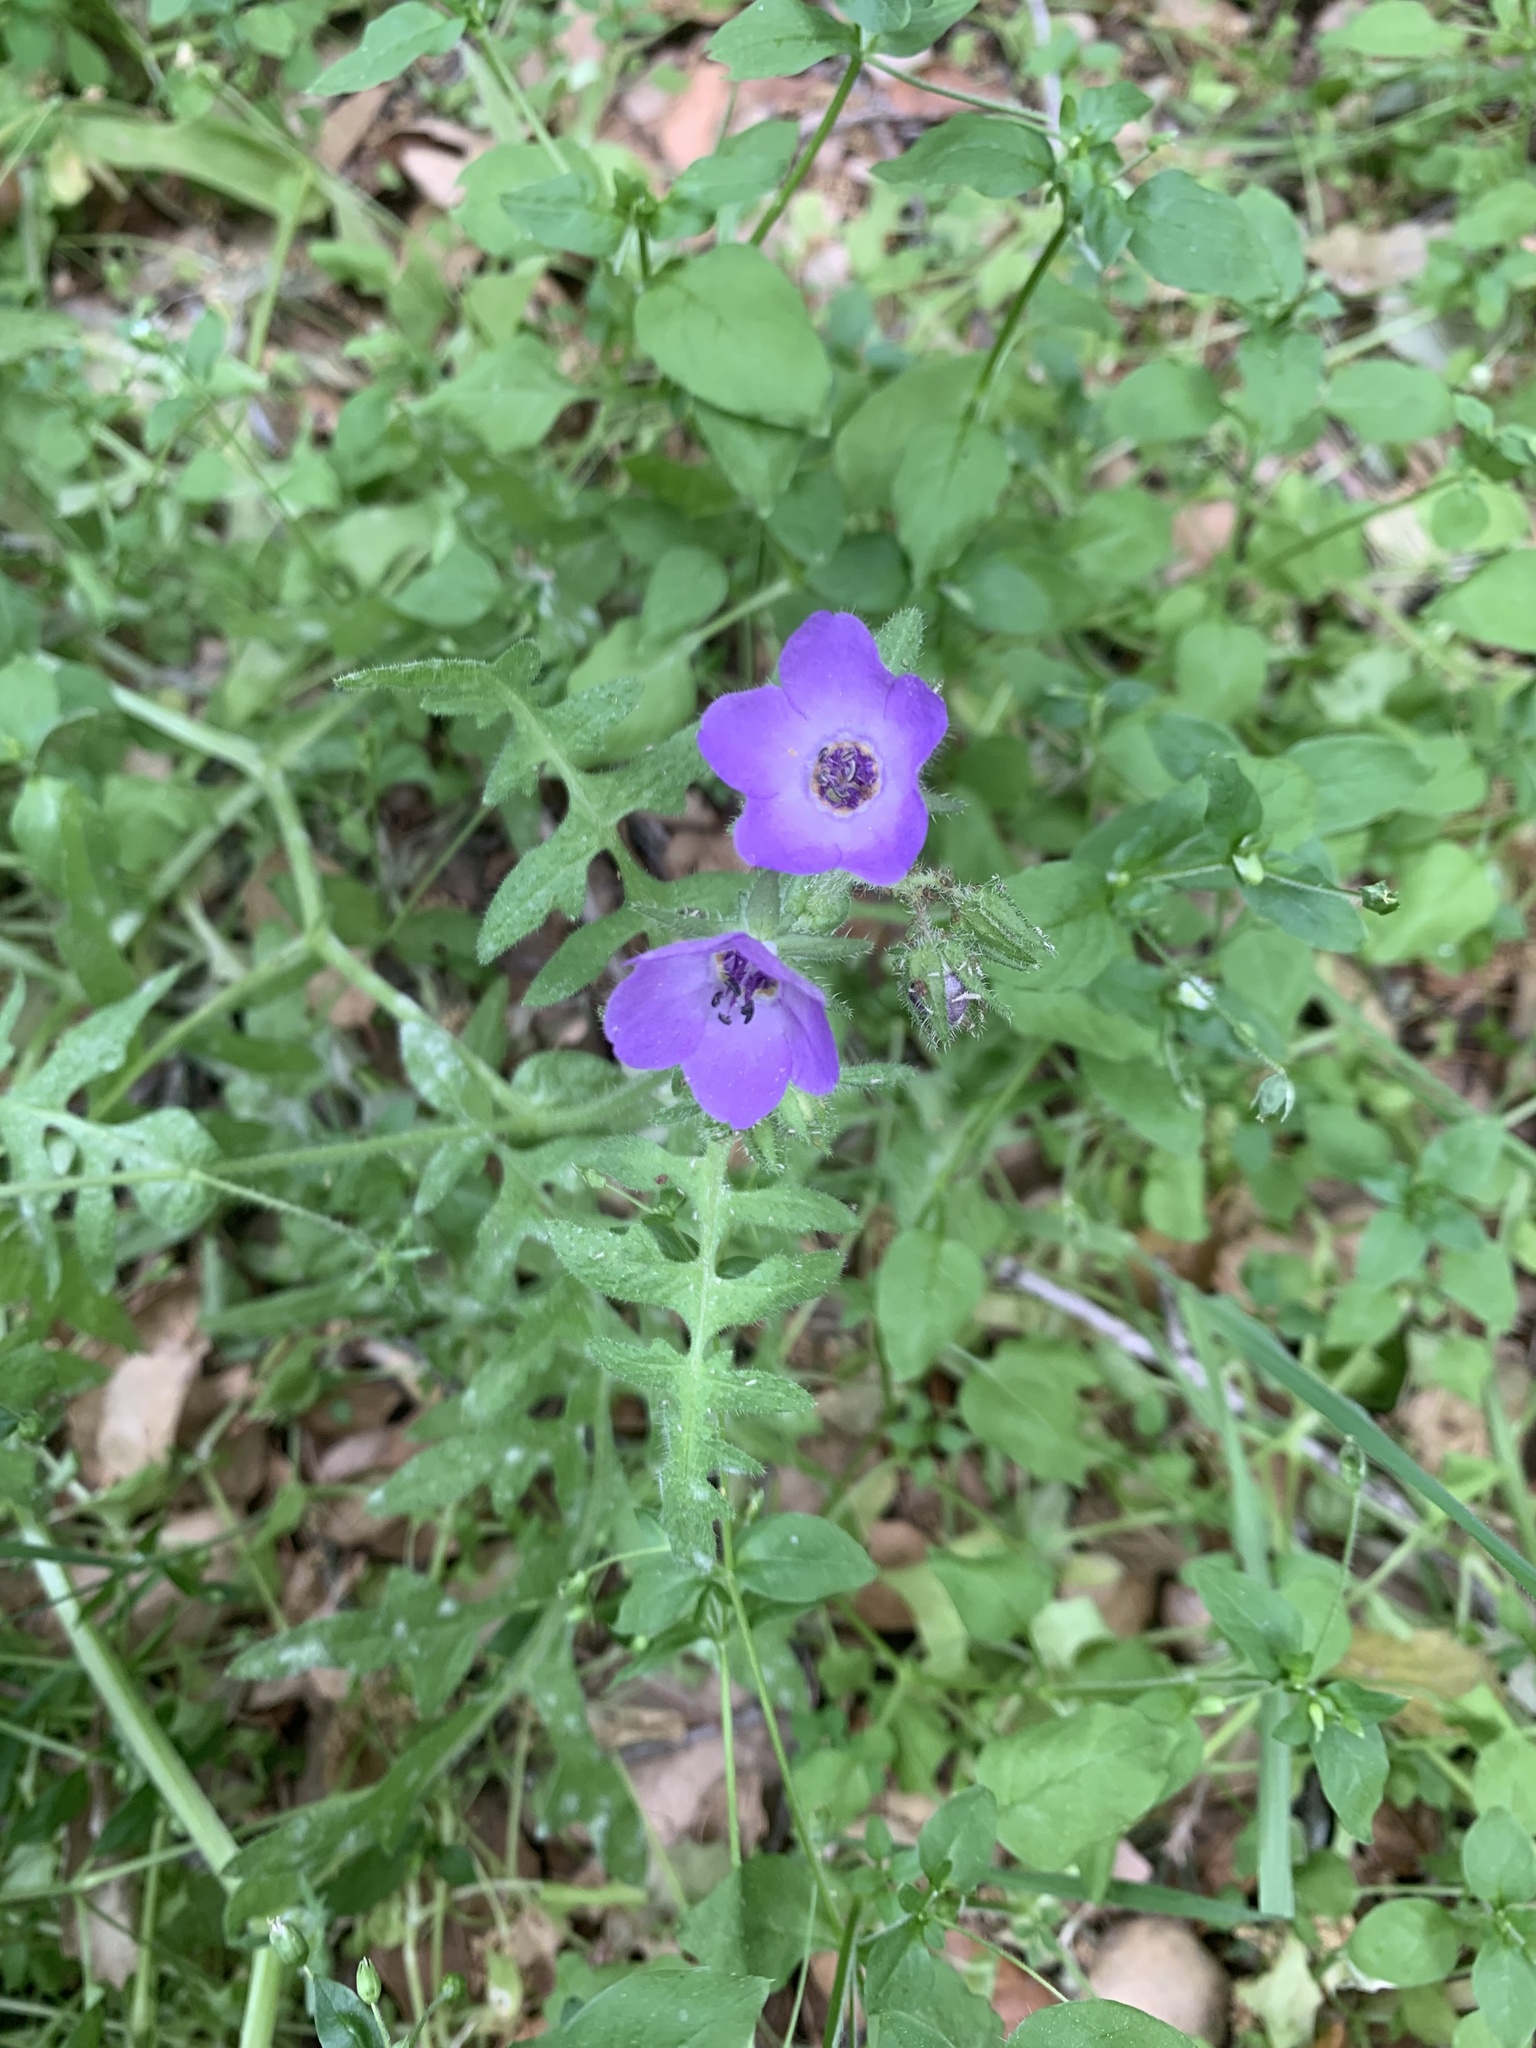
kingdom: Plantae
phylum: Tracheophyta
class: Magnoliopsida
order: Boraginales
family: Hydrophyllaceae
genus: Pholistoma
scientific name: Pholistoma auritum
